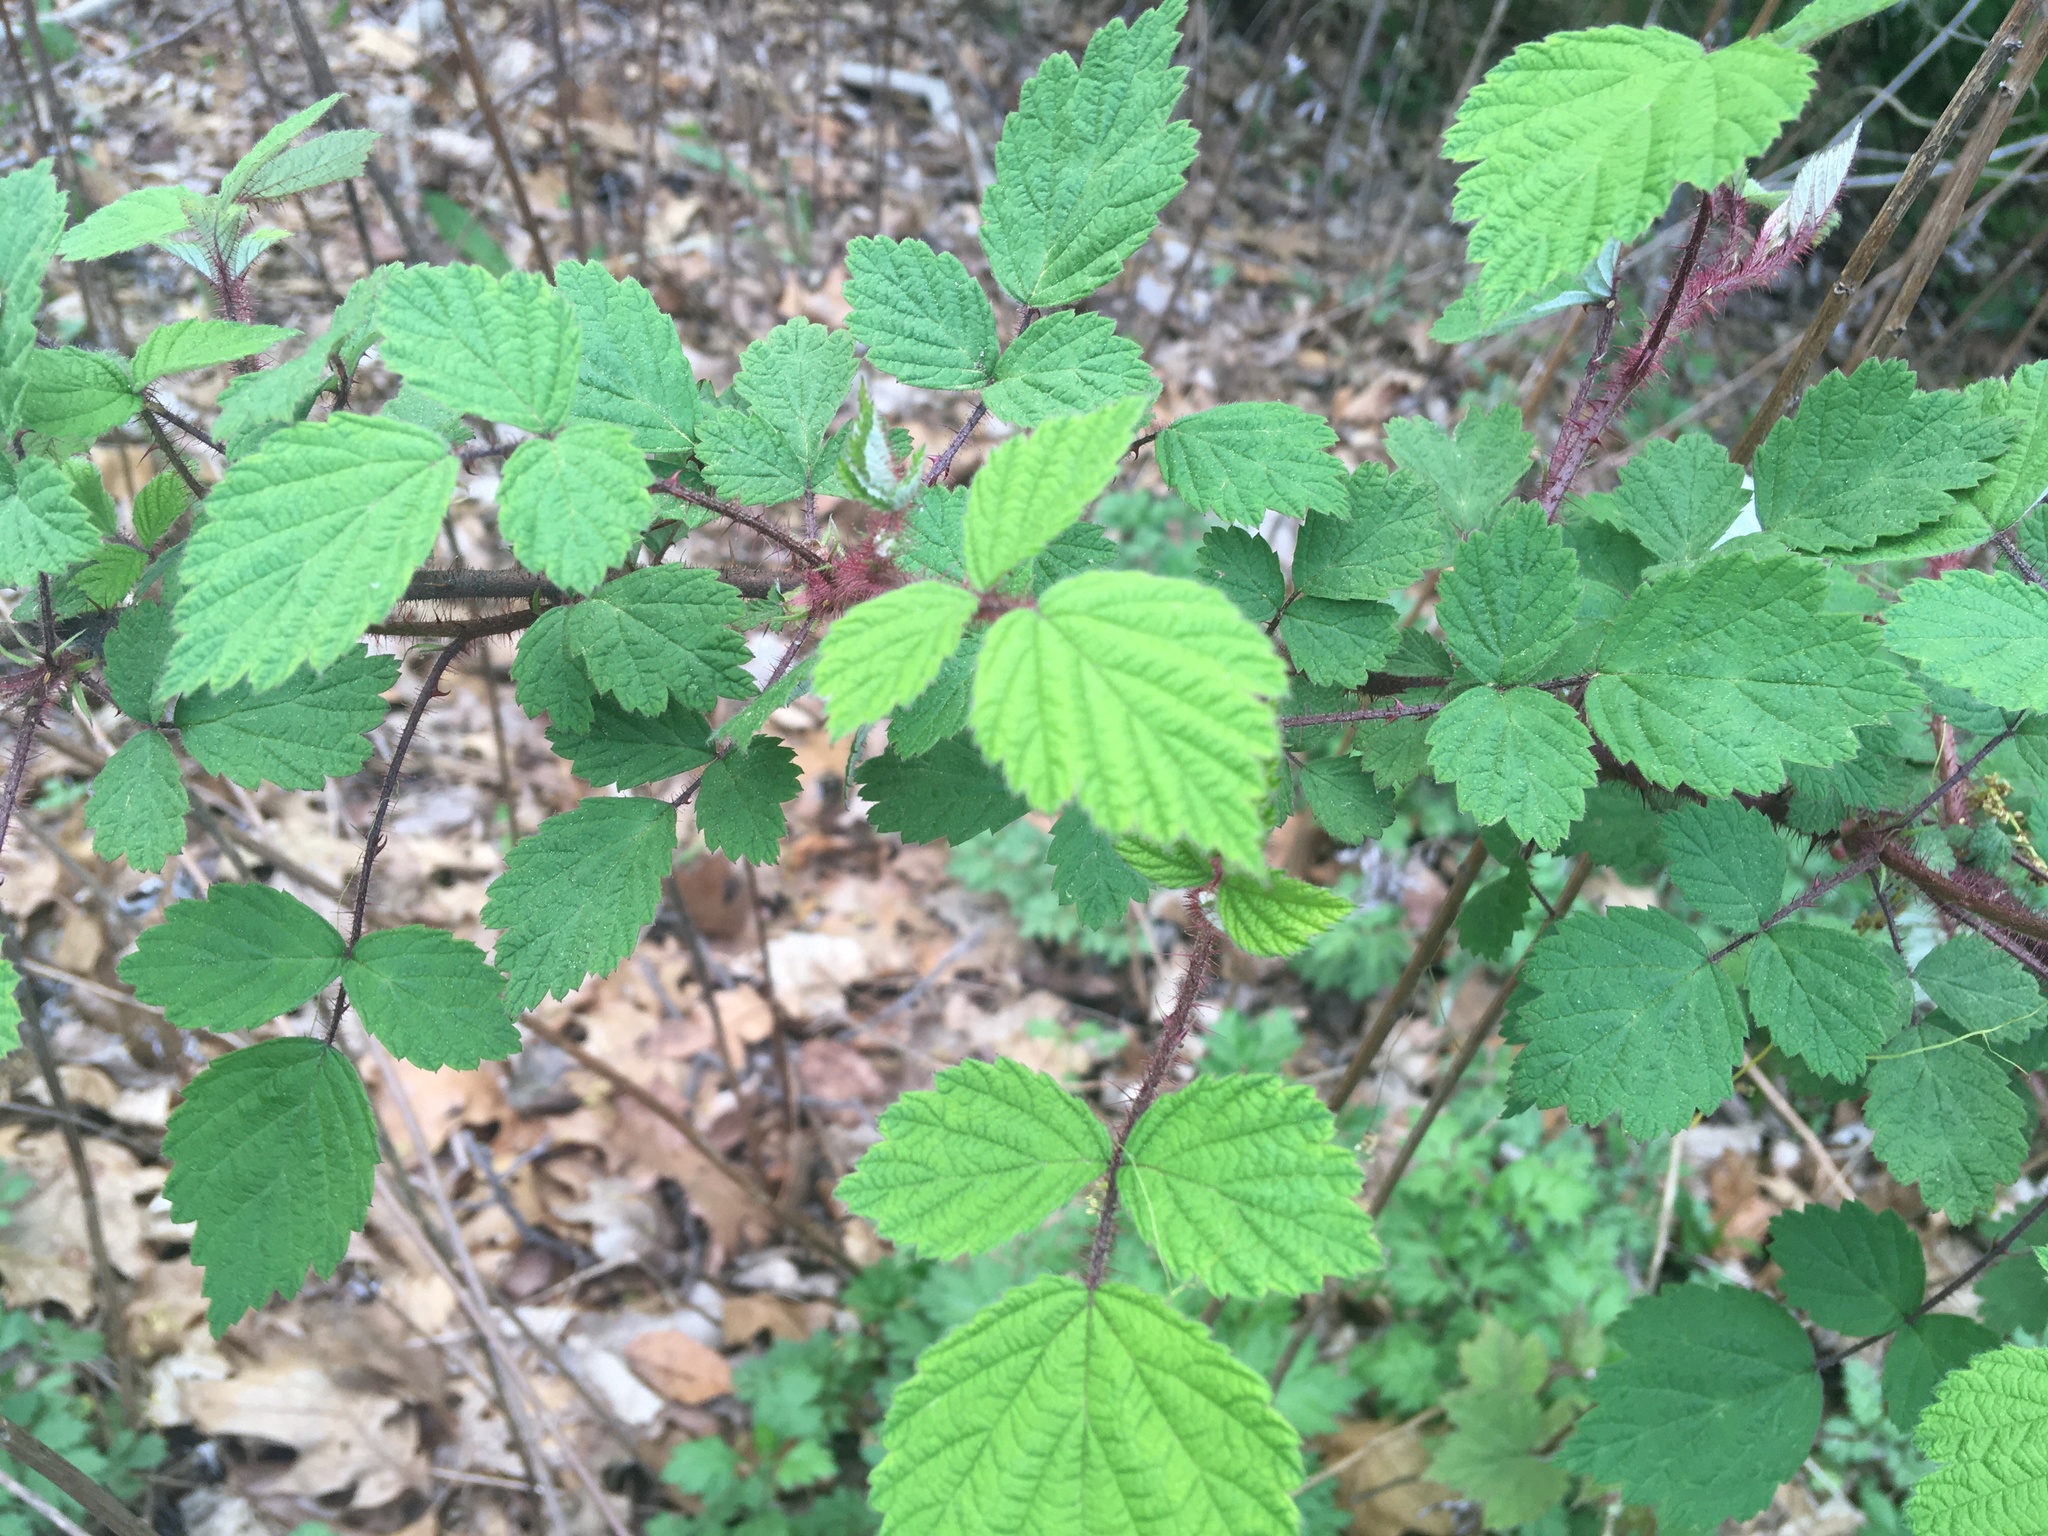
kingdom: Plantae
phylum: Tracheophyta
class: Magnoliopsida
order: Rosales
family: Rosaceae
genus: Rubus
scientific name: Rubus phoenicolasius
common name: Japanese wineberry
